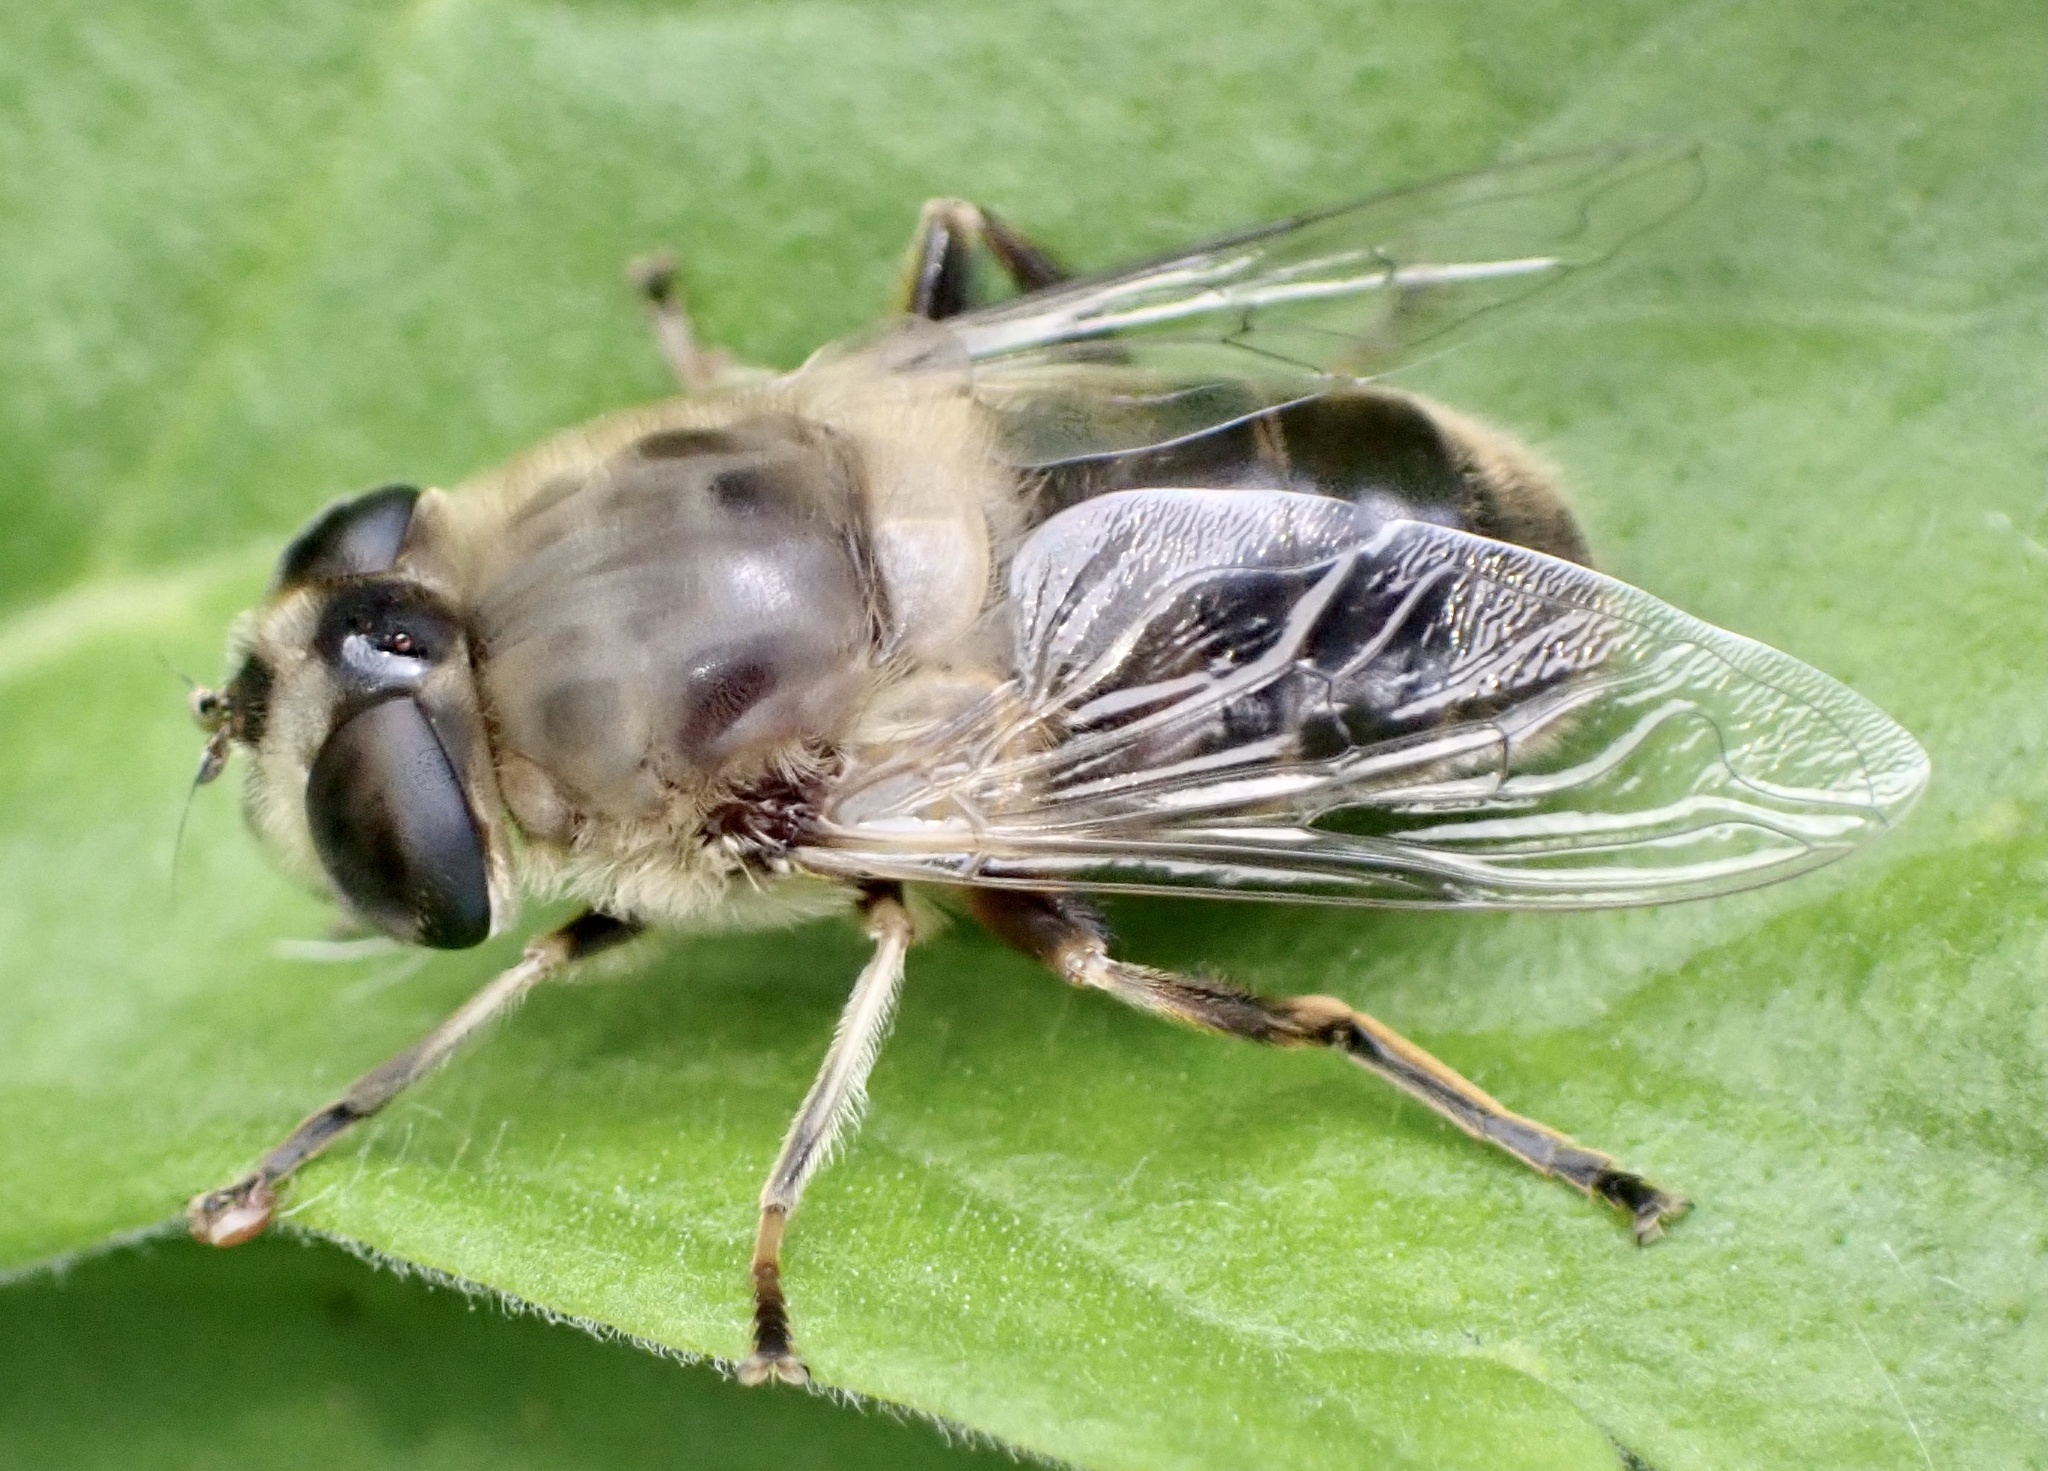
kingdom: Animalia
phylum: Arthropoda
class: Insecta
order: Diptera
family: Syrphidae
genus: Eristalis
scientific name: Eristalis tenax
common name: Drone fly
